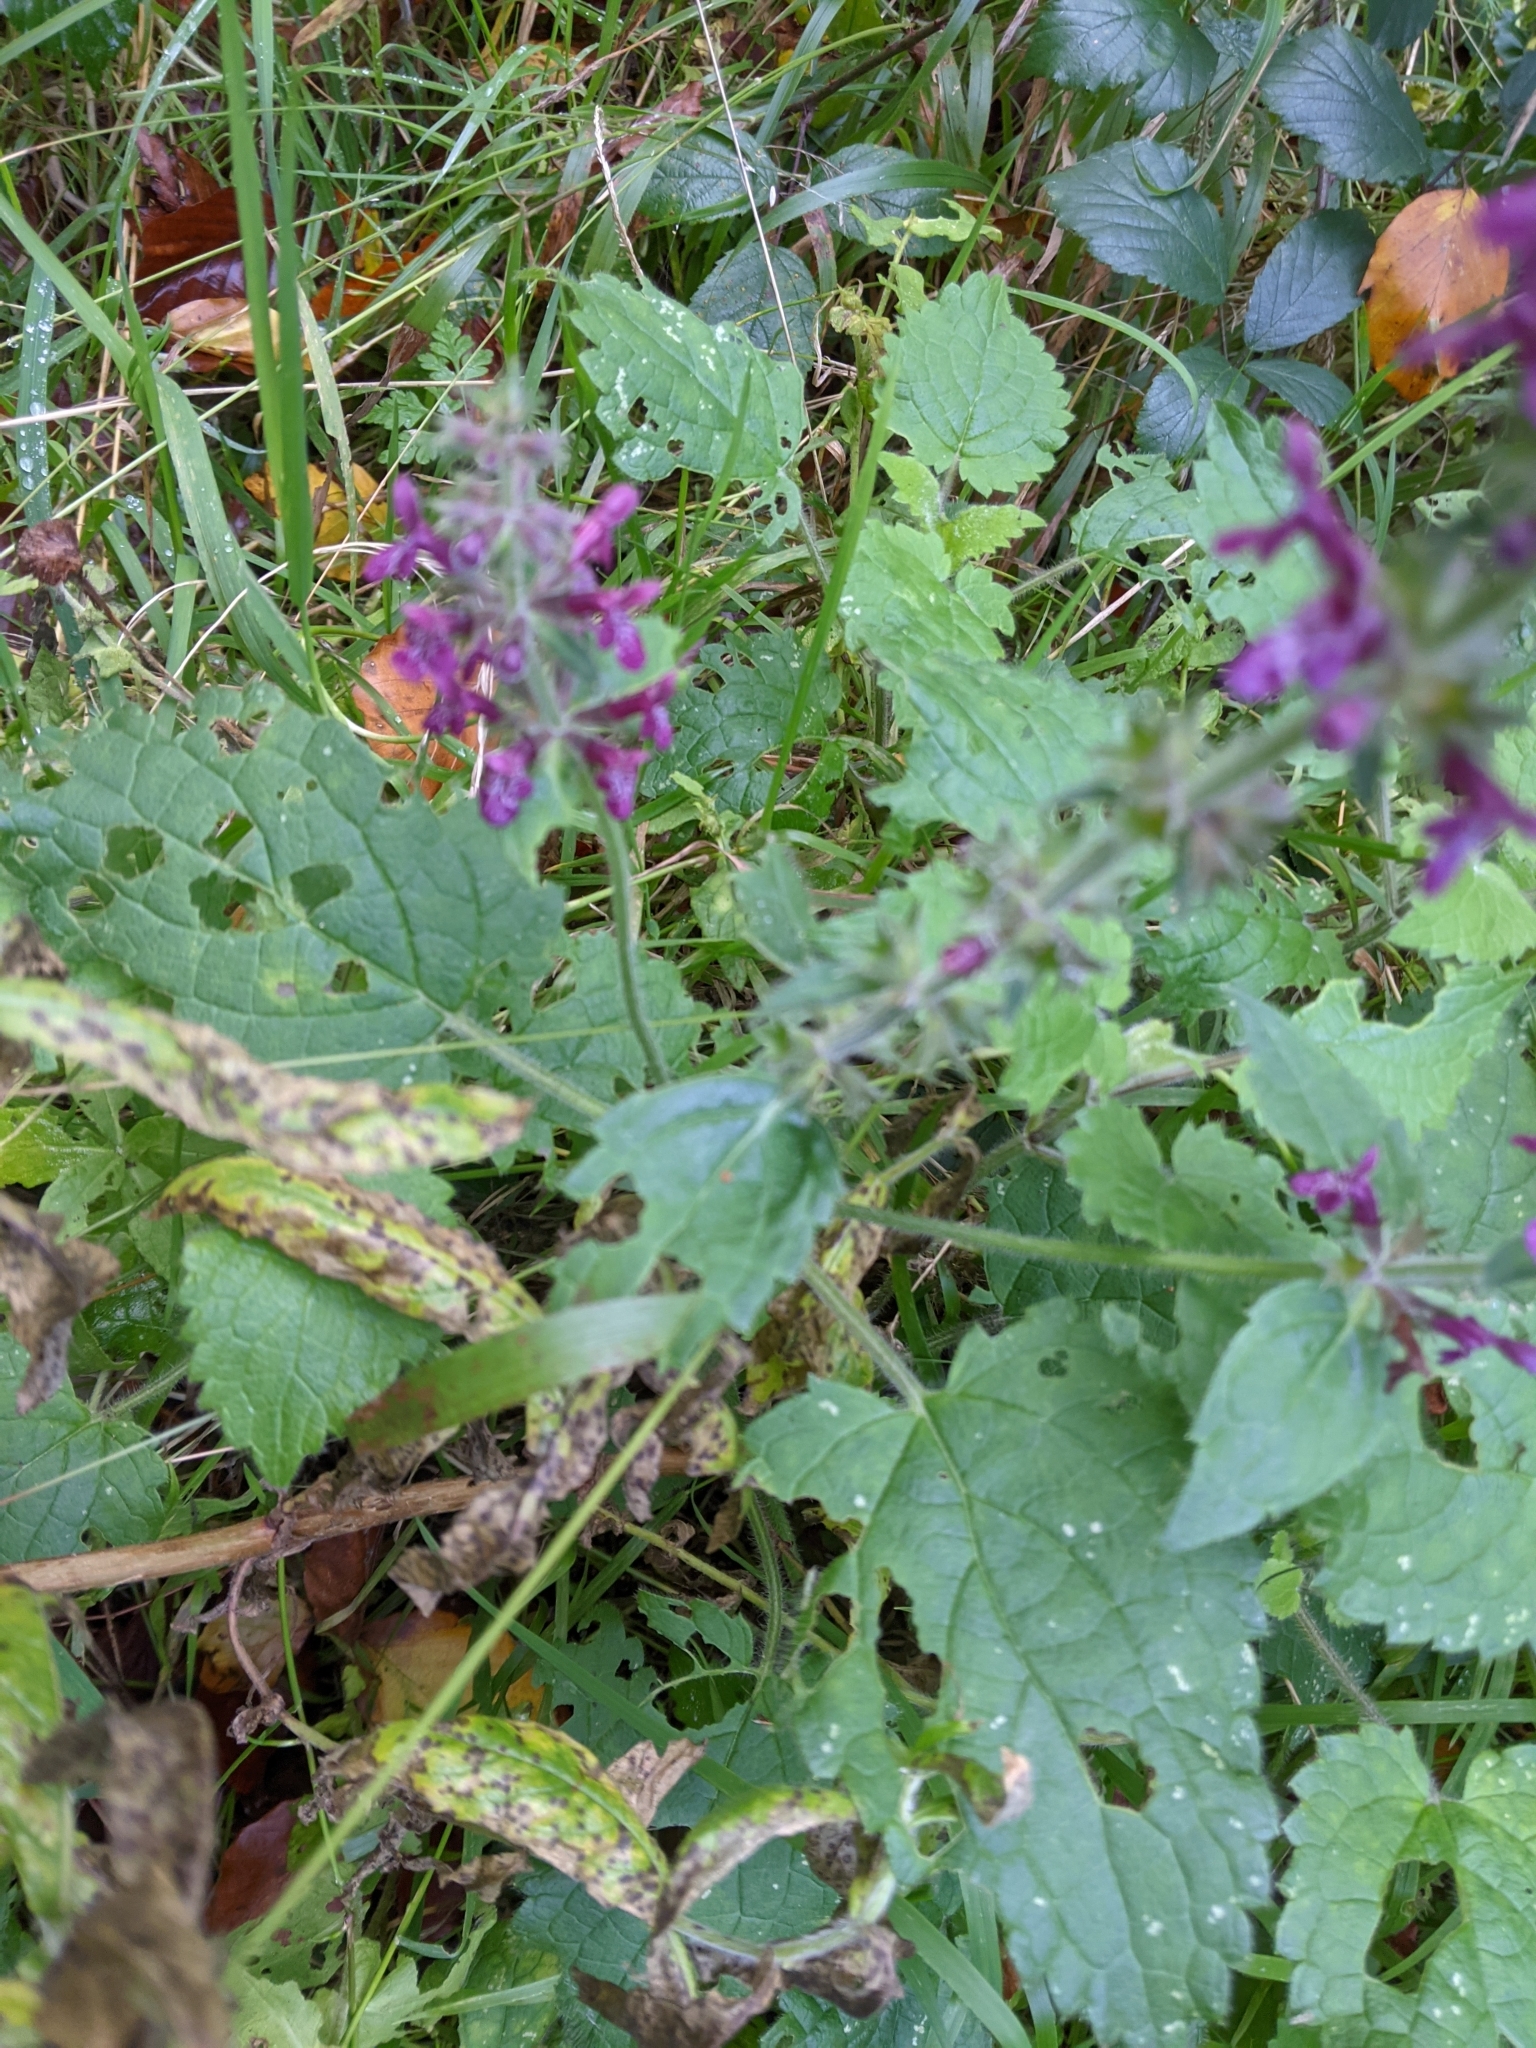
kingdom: Plantae
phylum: Tracheophyta
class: Magnoliopsida
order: Lamiales
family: Lamiaceae
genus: Stachys
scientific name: Stachys sylvatica
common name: Hedge woundwort
